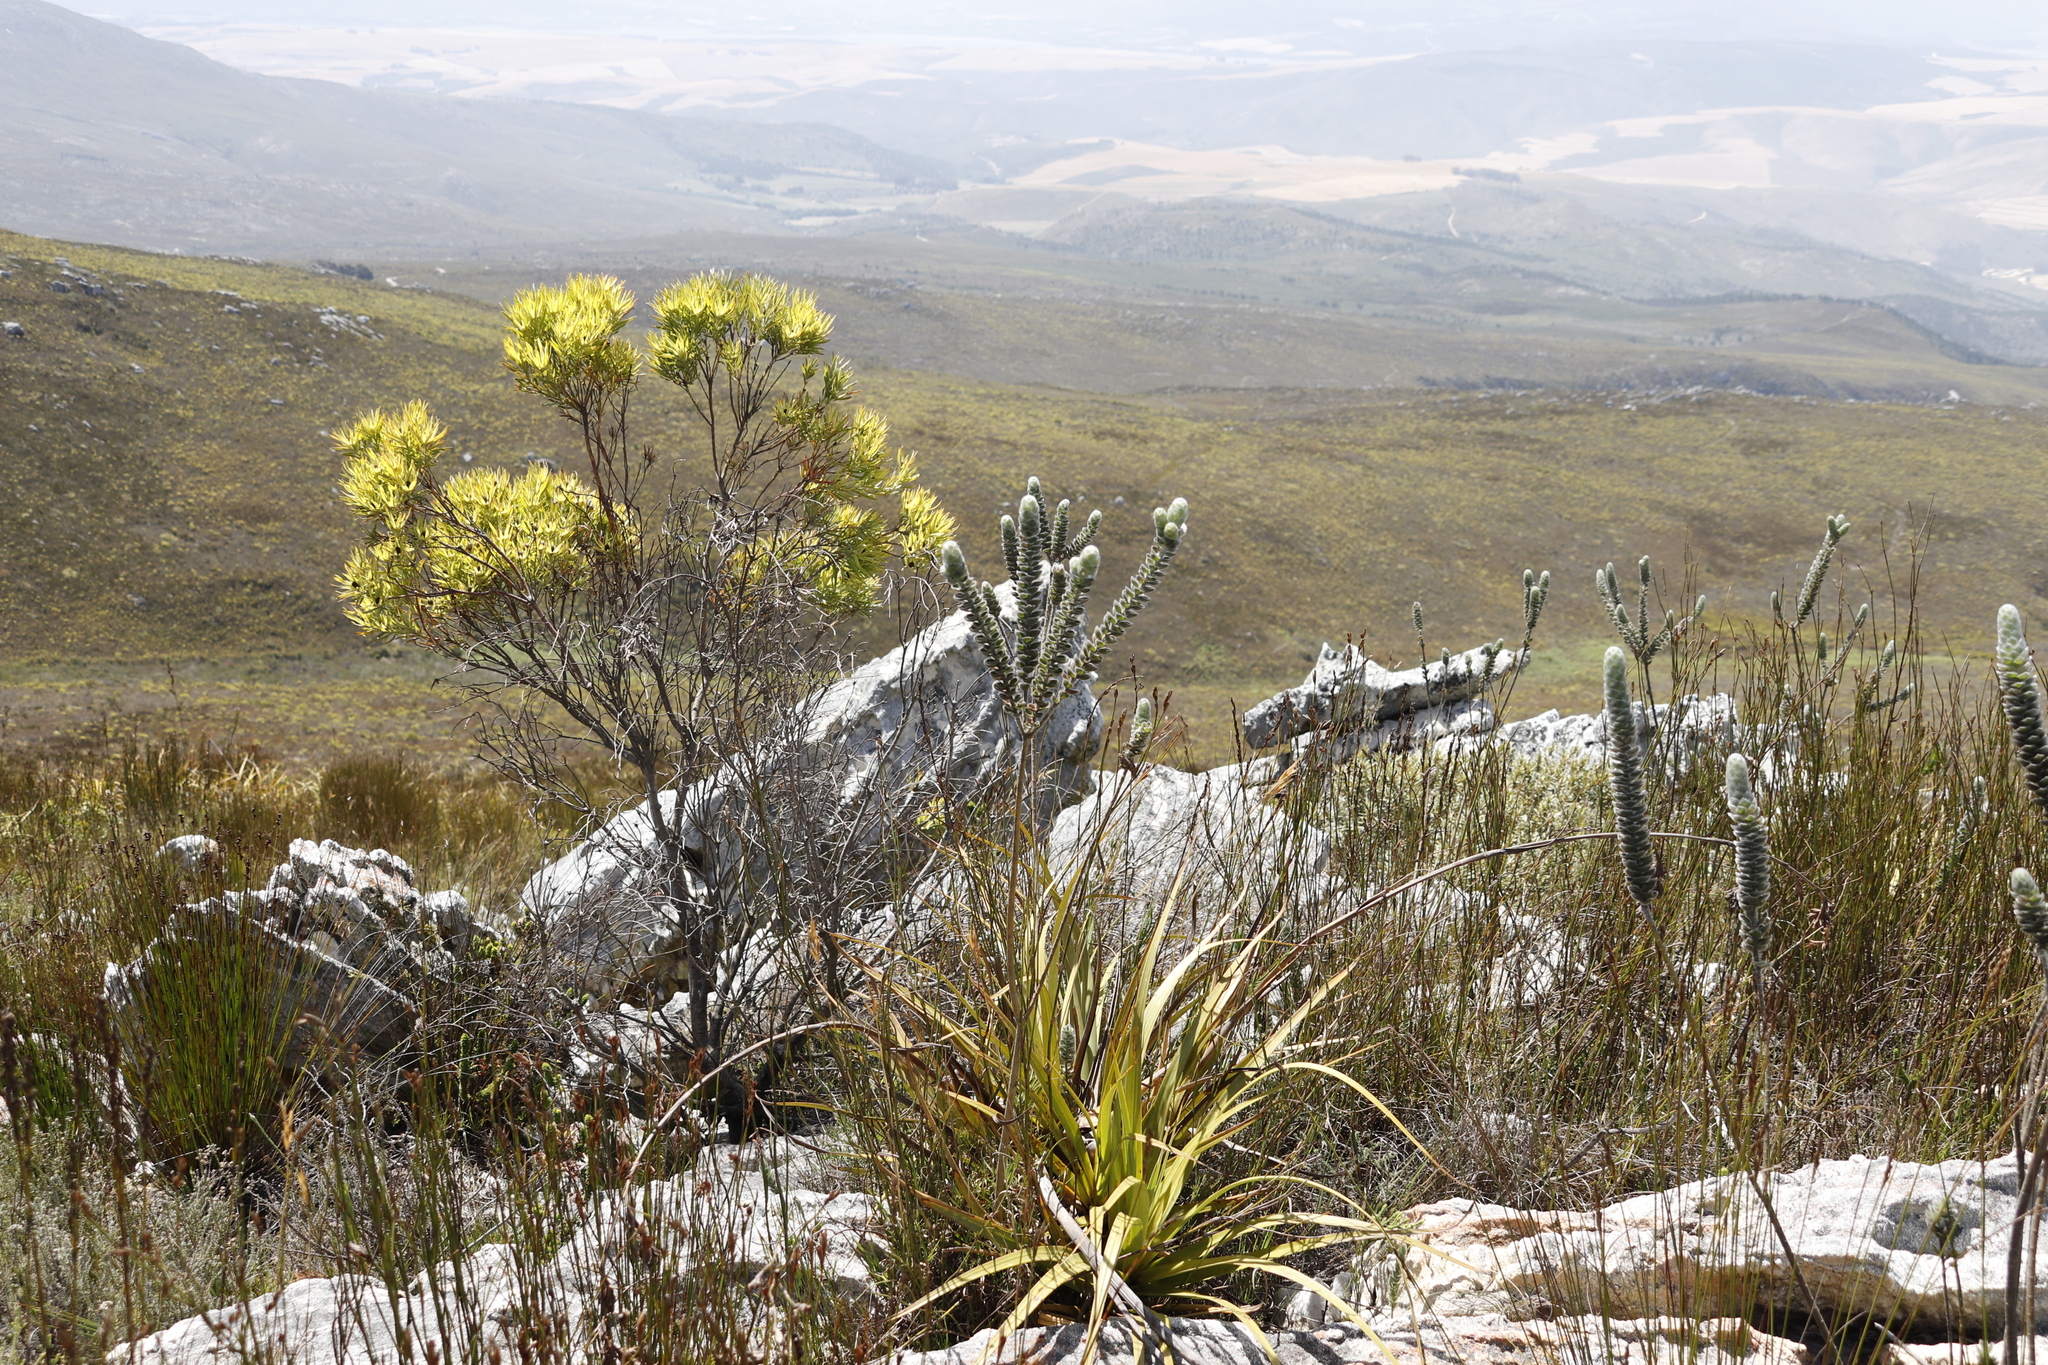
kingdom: Plantae
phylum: Tracheophyta
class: Magnoliopsida
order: Proteales
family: Proteaceae
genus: Leucadendron
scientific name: Leucadendron xanthoconus
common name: Sickle-leaf conebush
